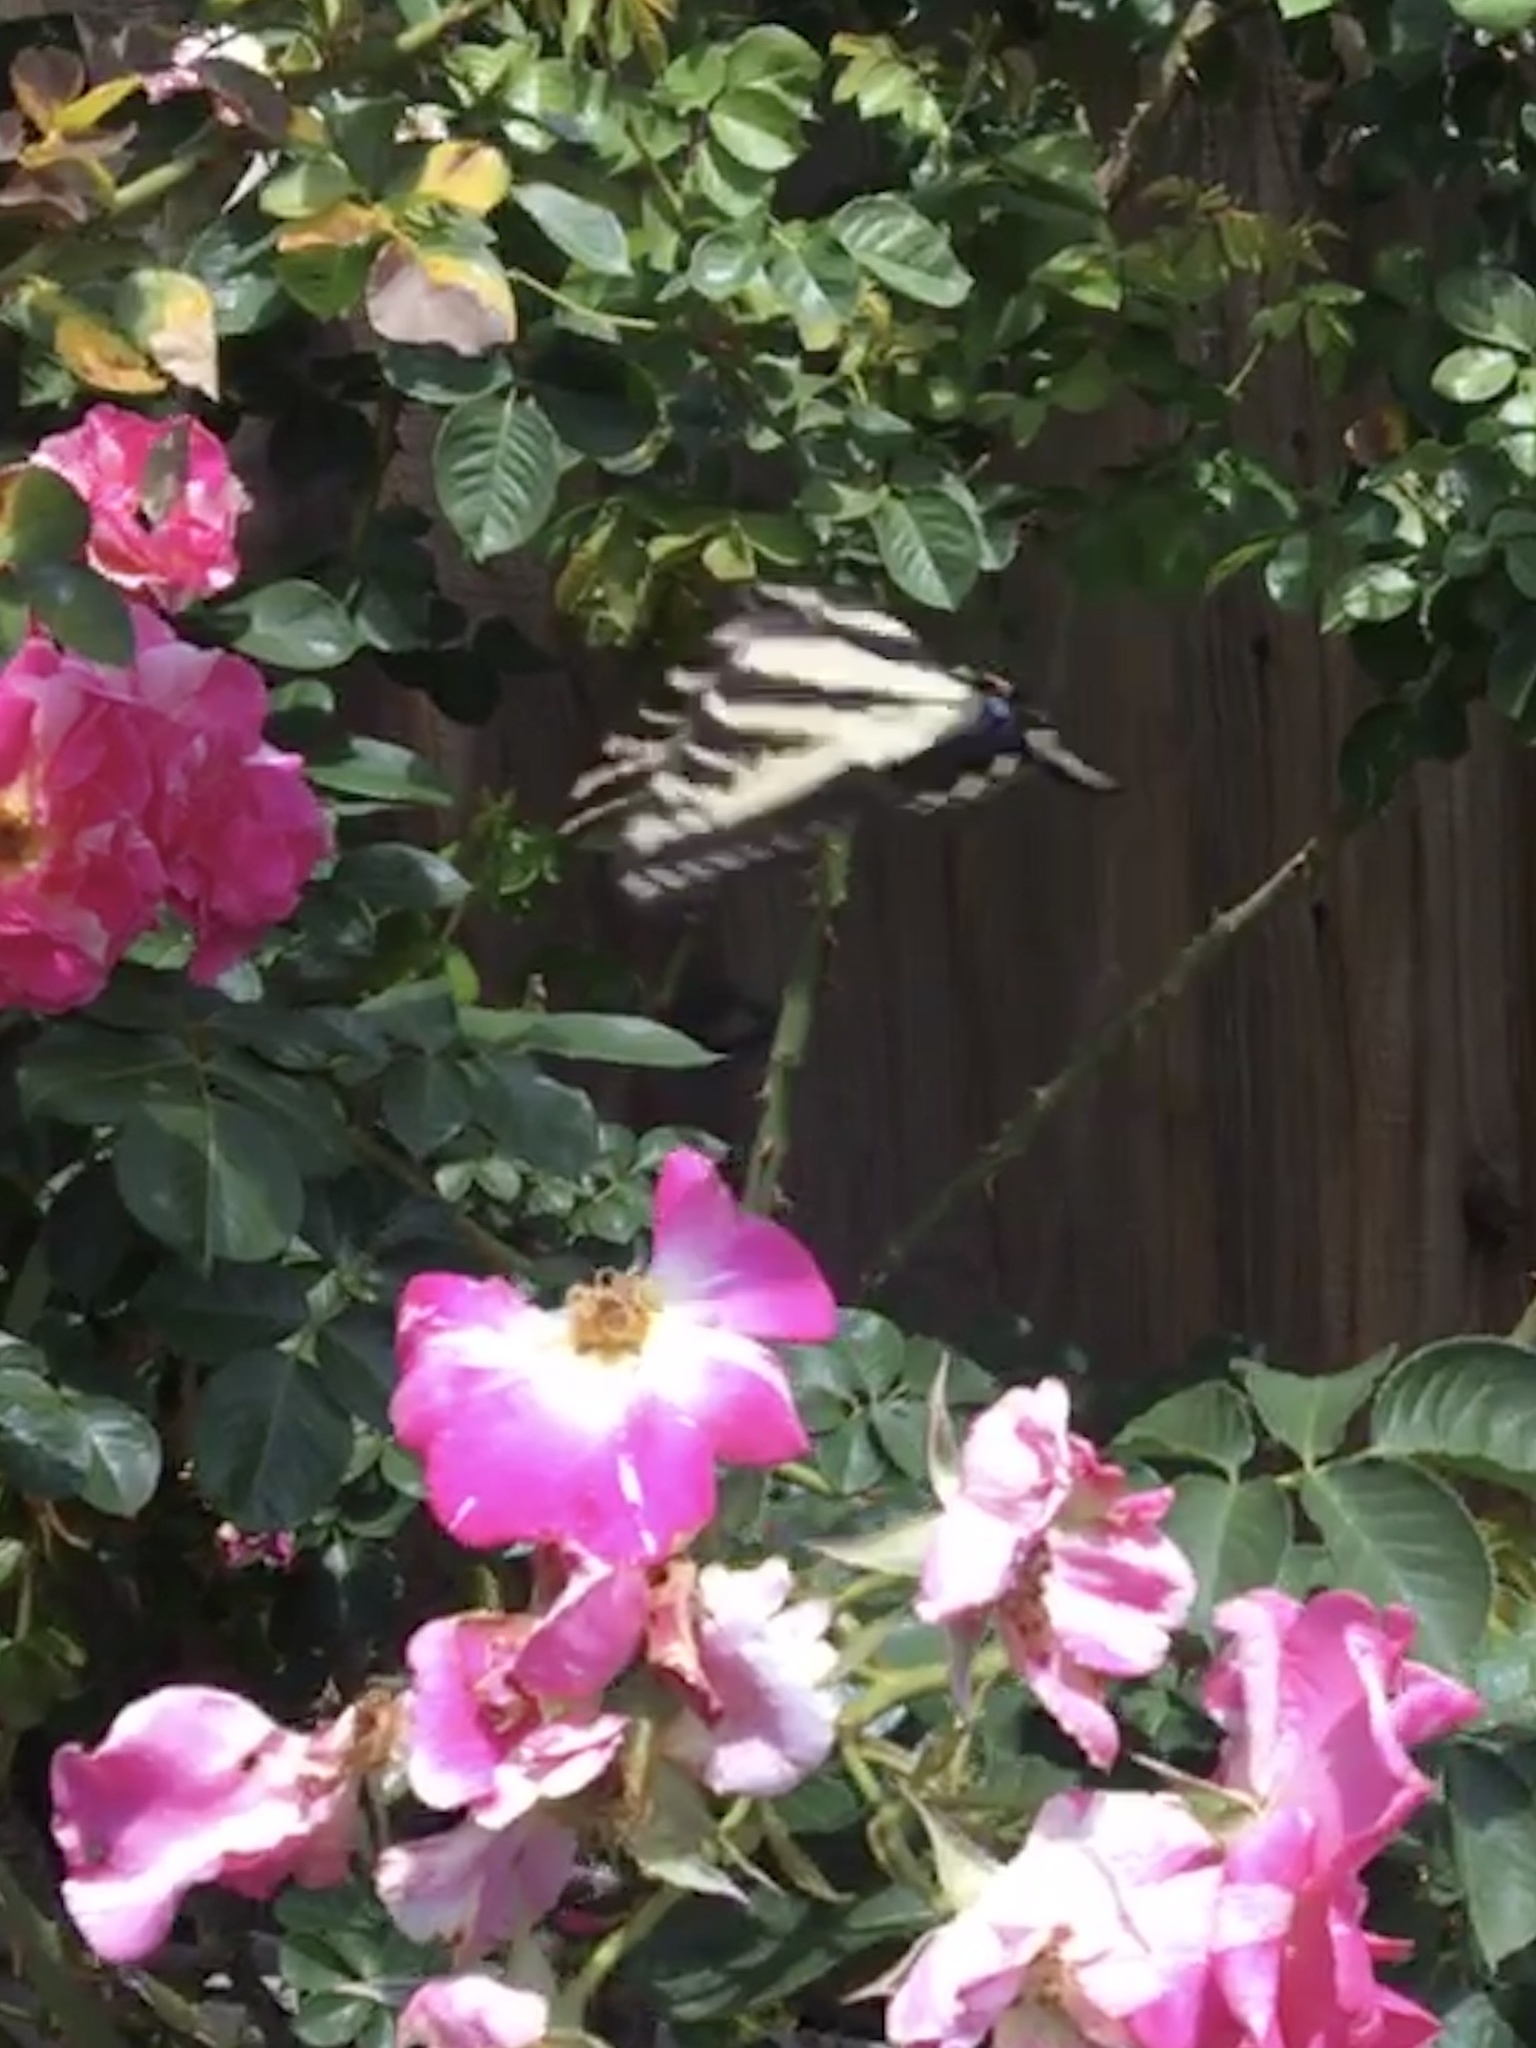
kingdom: Animalia
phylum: Arthropoda
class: Insecta
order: Lepidoptera
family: Papilionidae
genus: Papilio
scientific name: Papilio eurymedon
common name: Pale tiger swallowtail
